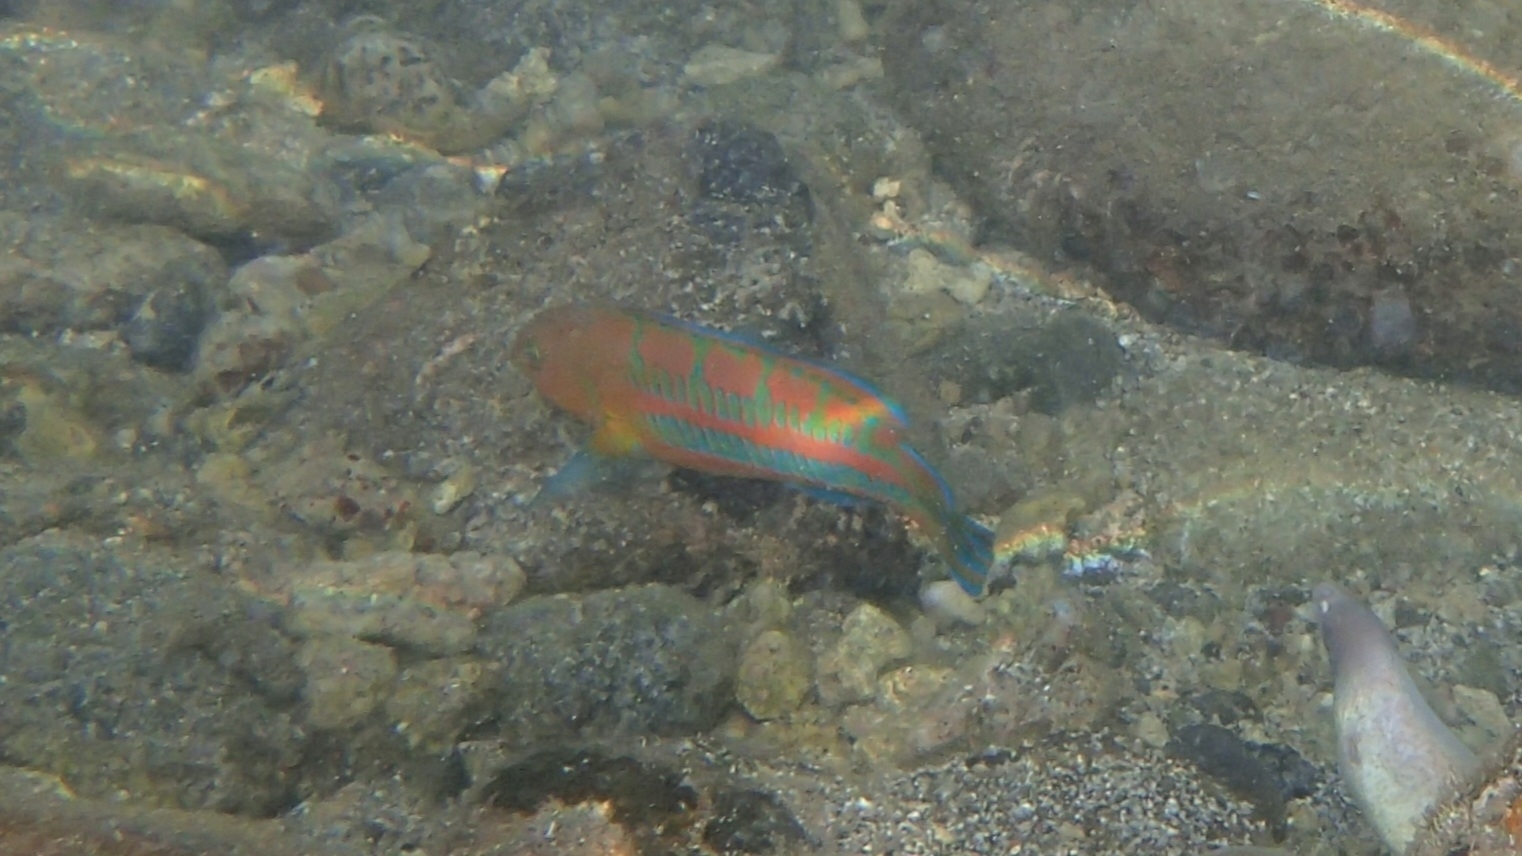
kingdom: Animalia
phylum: Chordata
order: Perciformes
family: Labridae
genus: Thalassoma
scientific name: Thalassoma trilobatum
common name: Christmas wrasse
